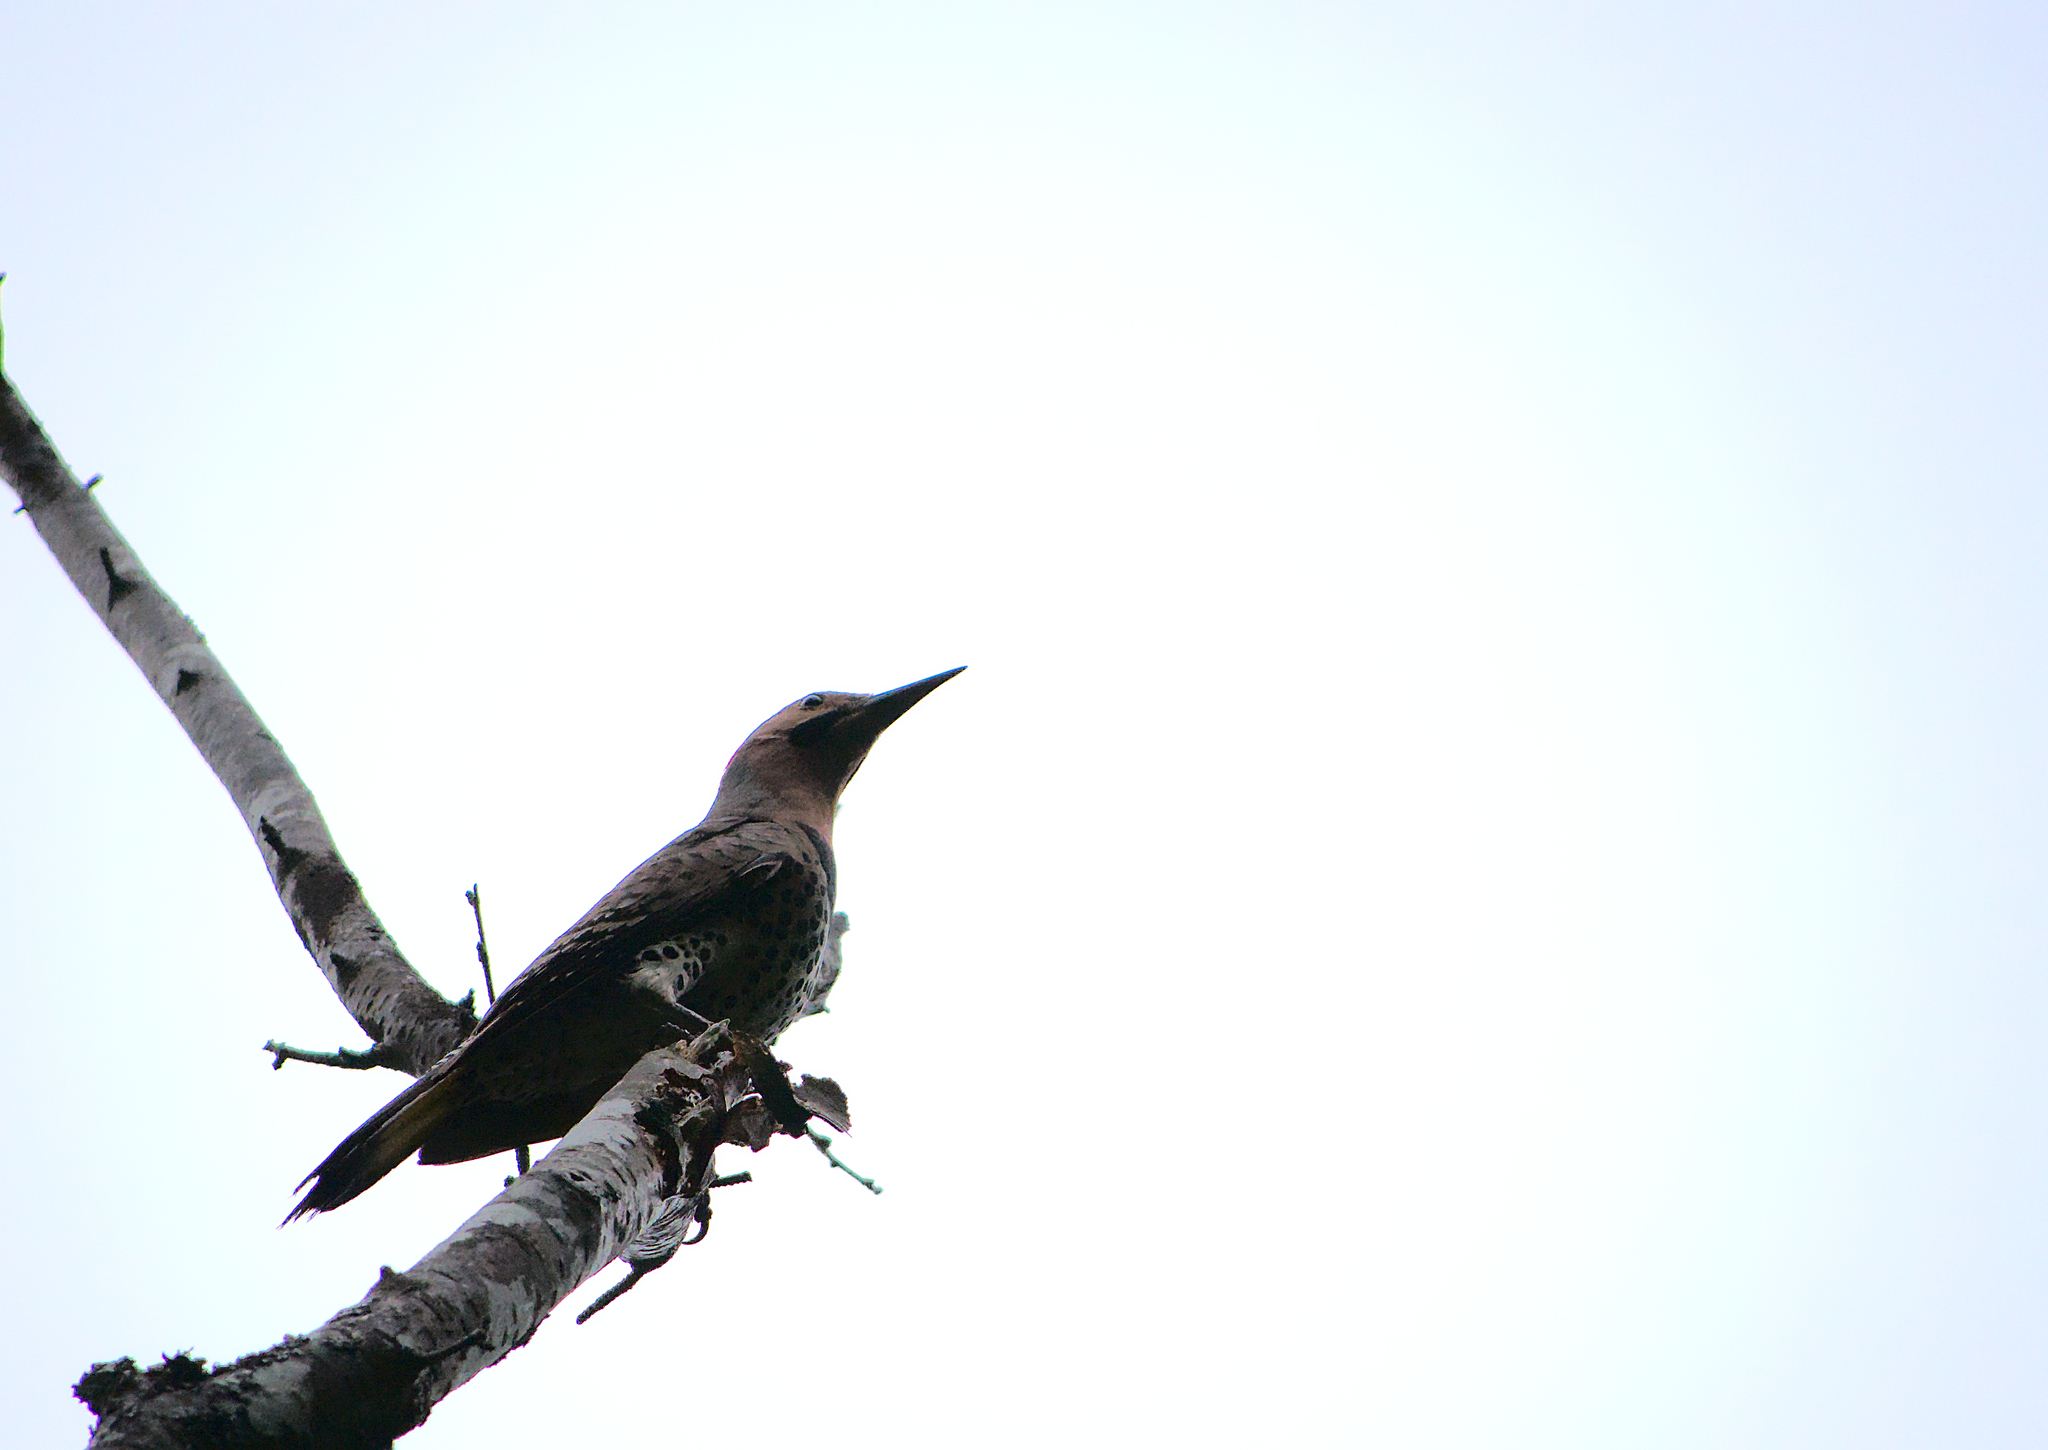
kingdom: Animalia
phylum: Chordata
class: Aves
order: Piciformes
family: Picidae
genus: Colaptes
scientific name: Colaptes auratus
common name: Northern flicker
